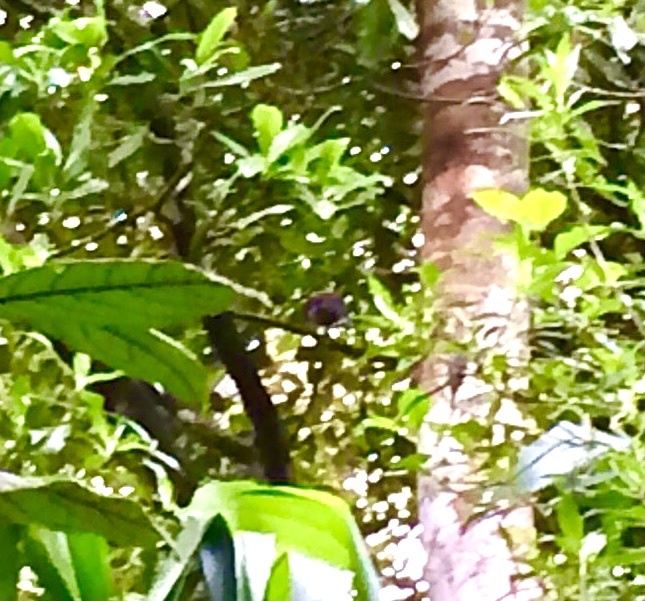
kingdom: Animalia
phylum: Chordata
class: Aves
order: Passeriformes
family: Corvidae
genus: Urocissa
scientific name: Urocissa ornata
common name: Sri lanka blue magpie
